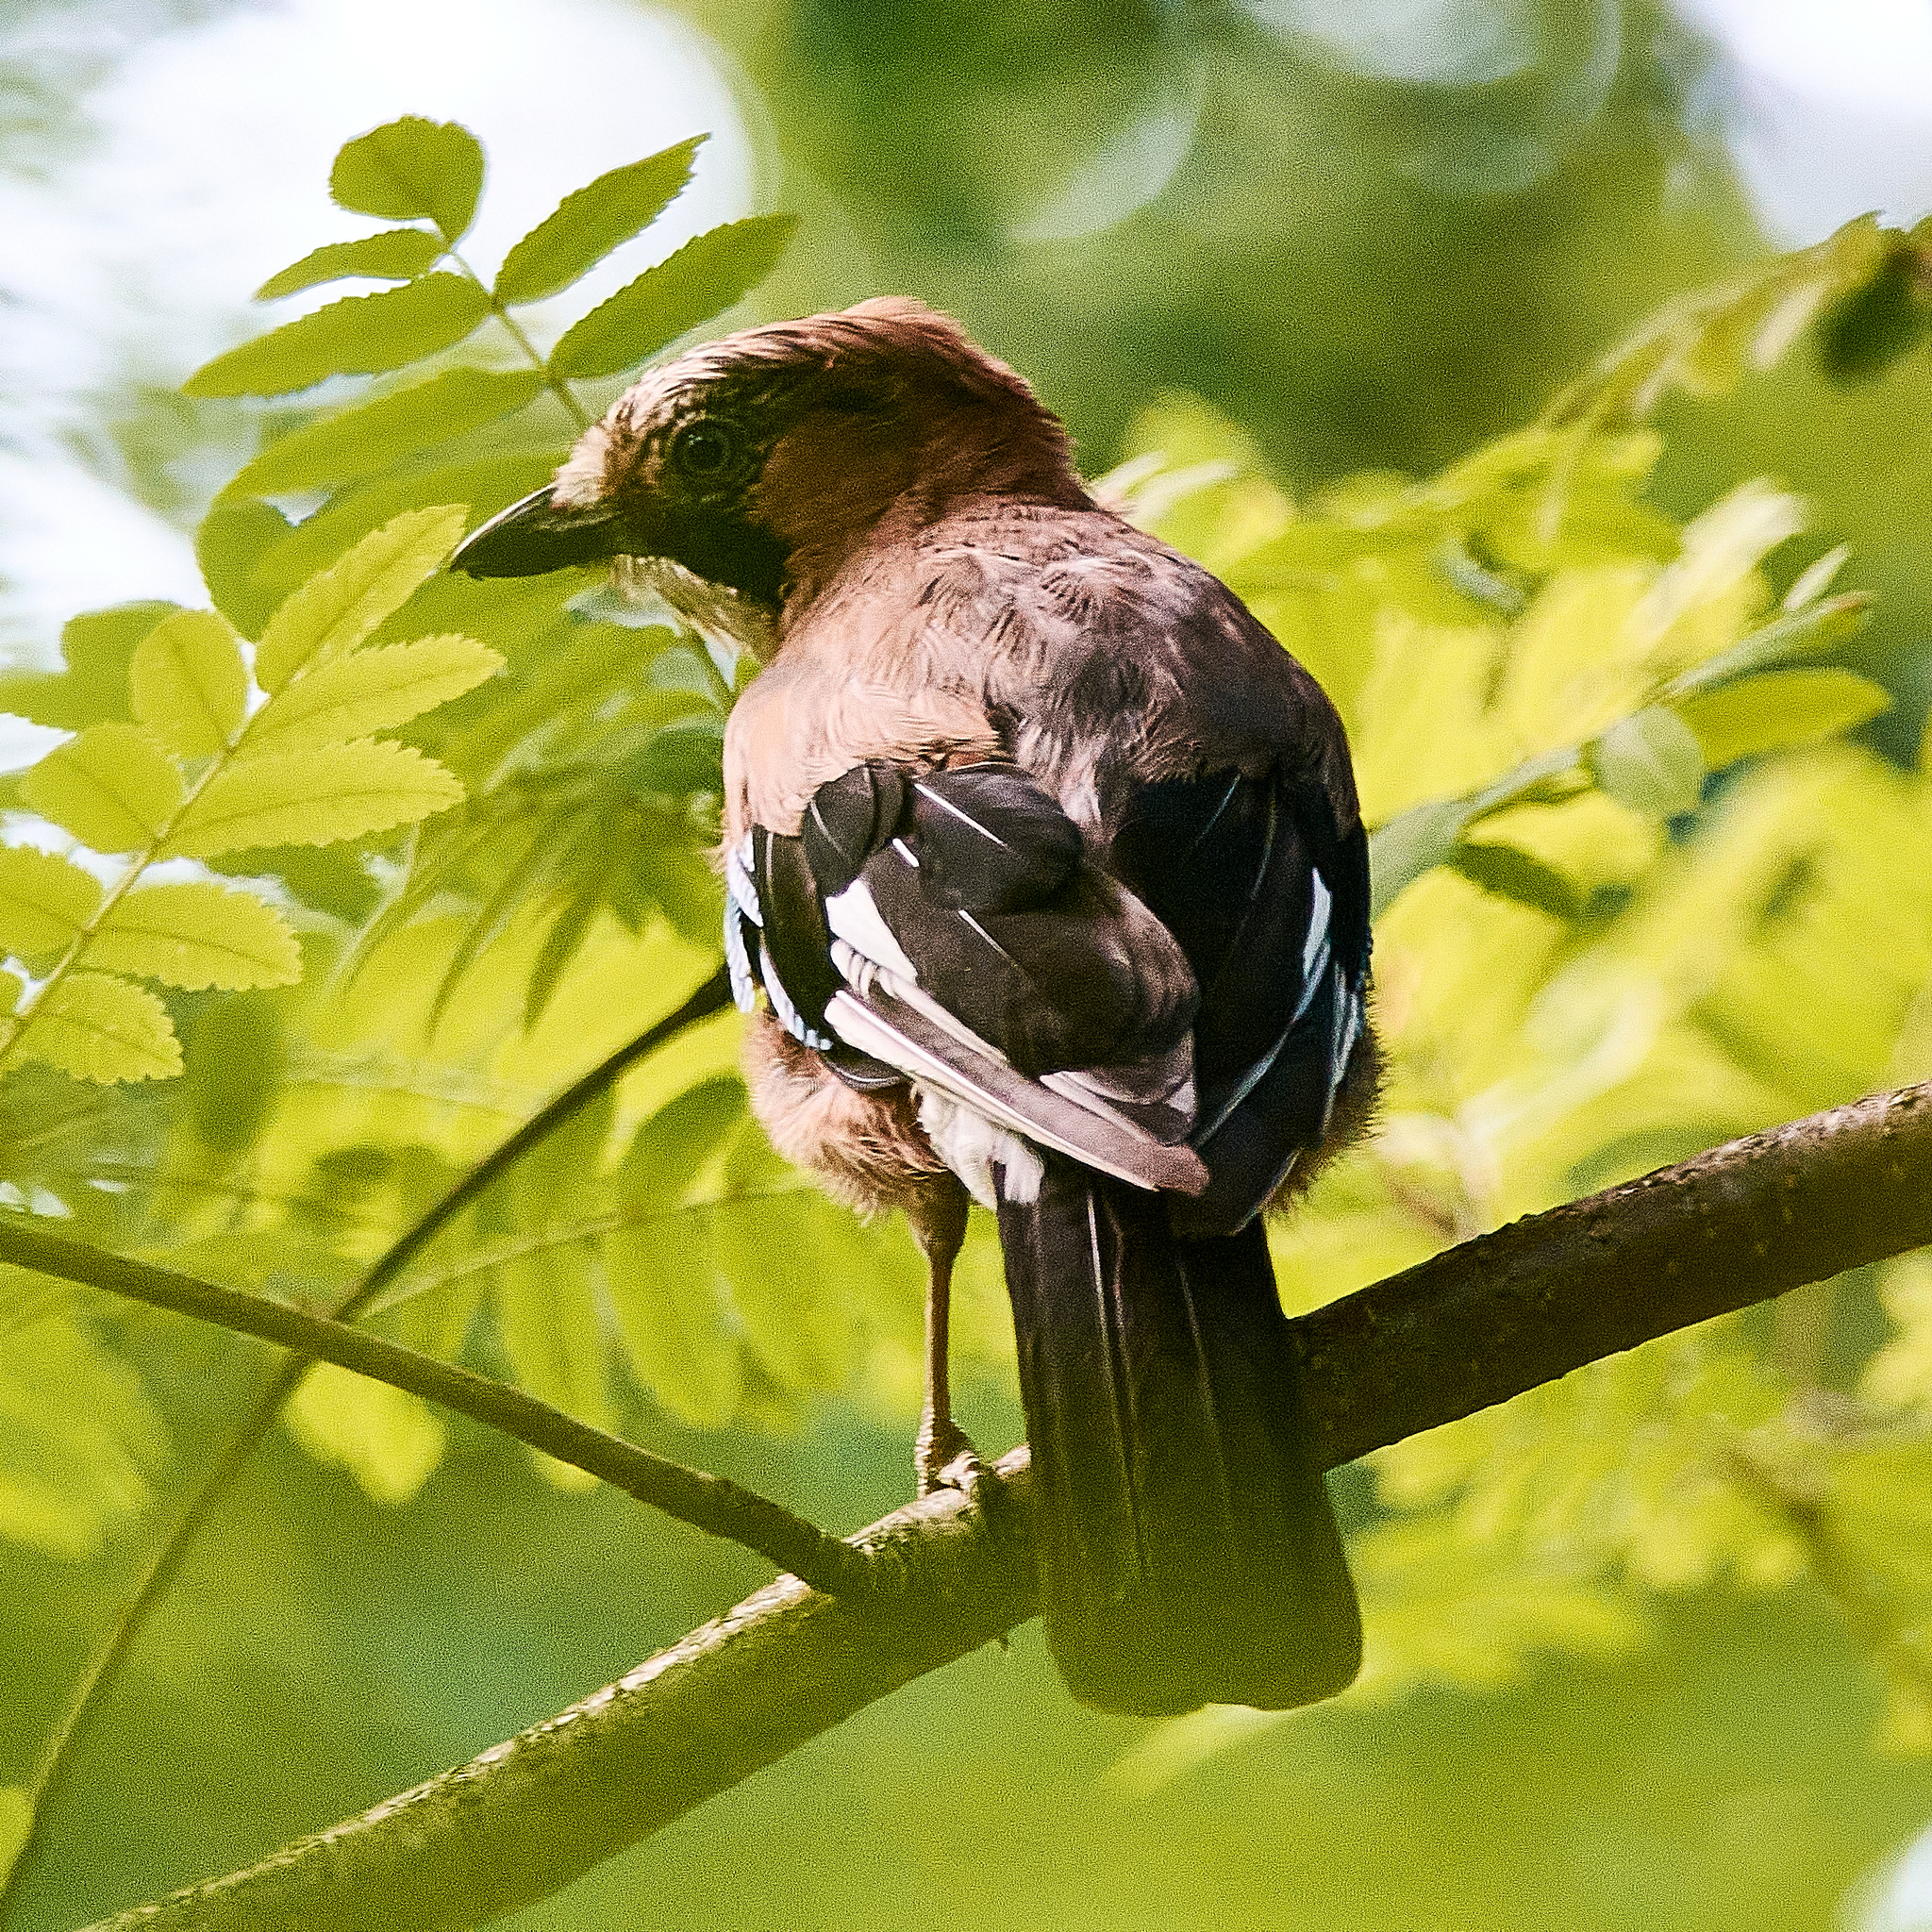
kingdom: Animalia
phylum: Chordata
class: Aves
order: Passeriformes
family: Corvidae
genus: Garrulus
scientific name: Garrulus glandarius
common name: Eurasian jay
